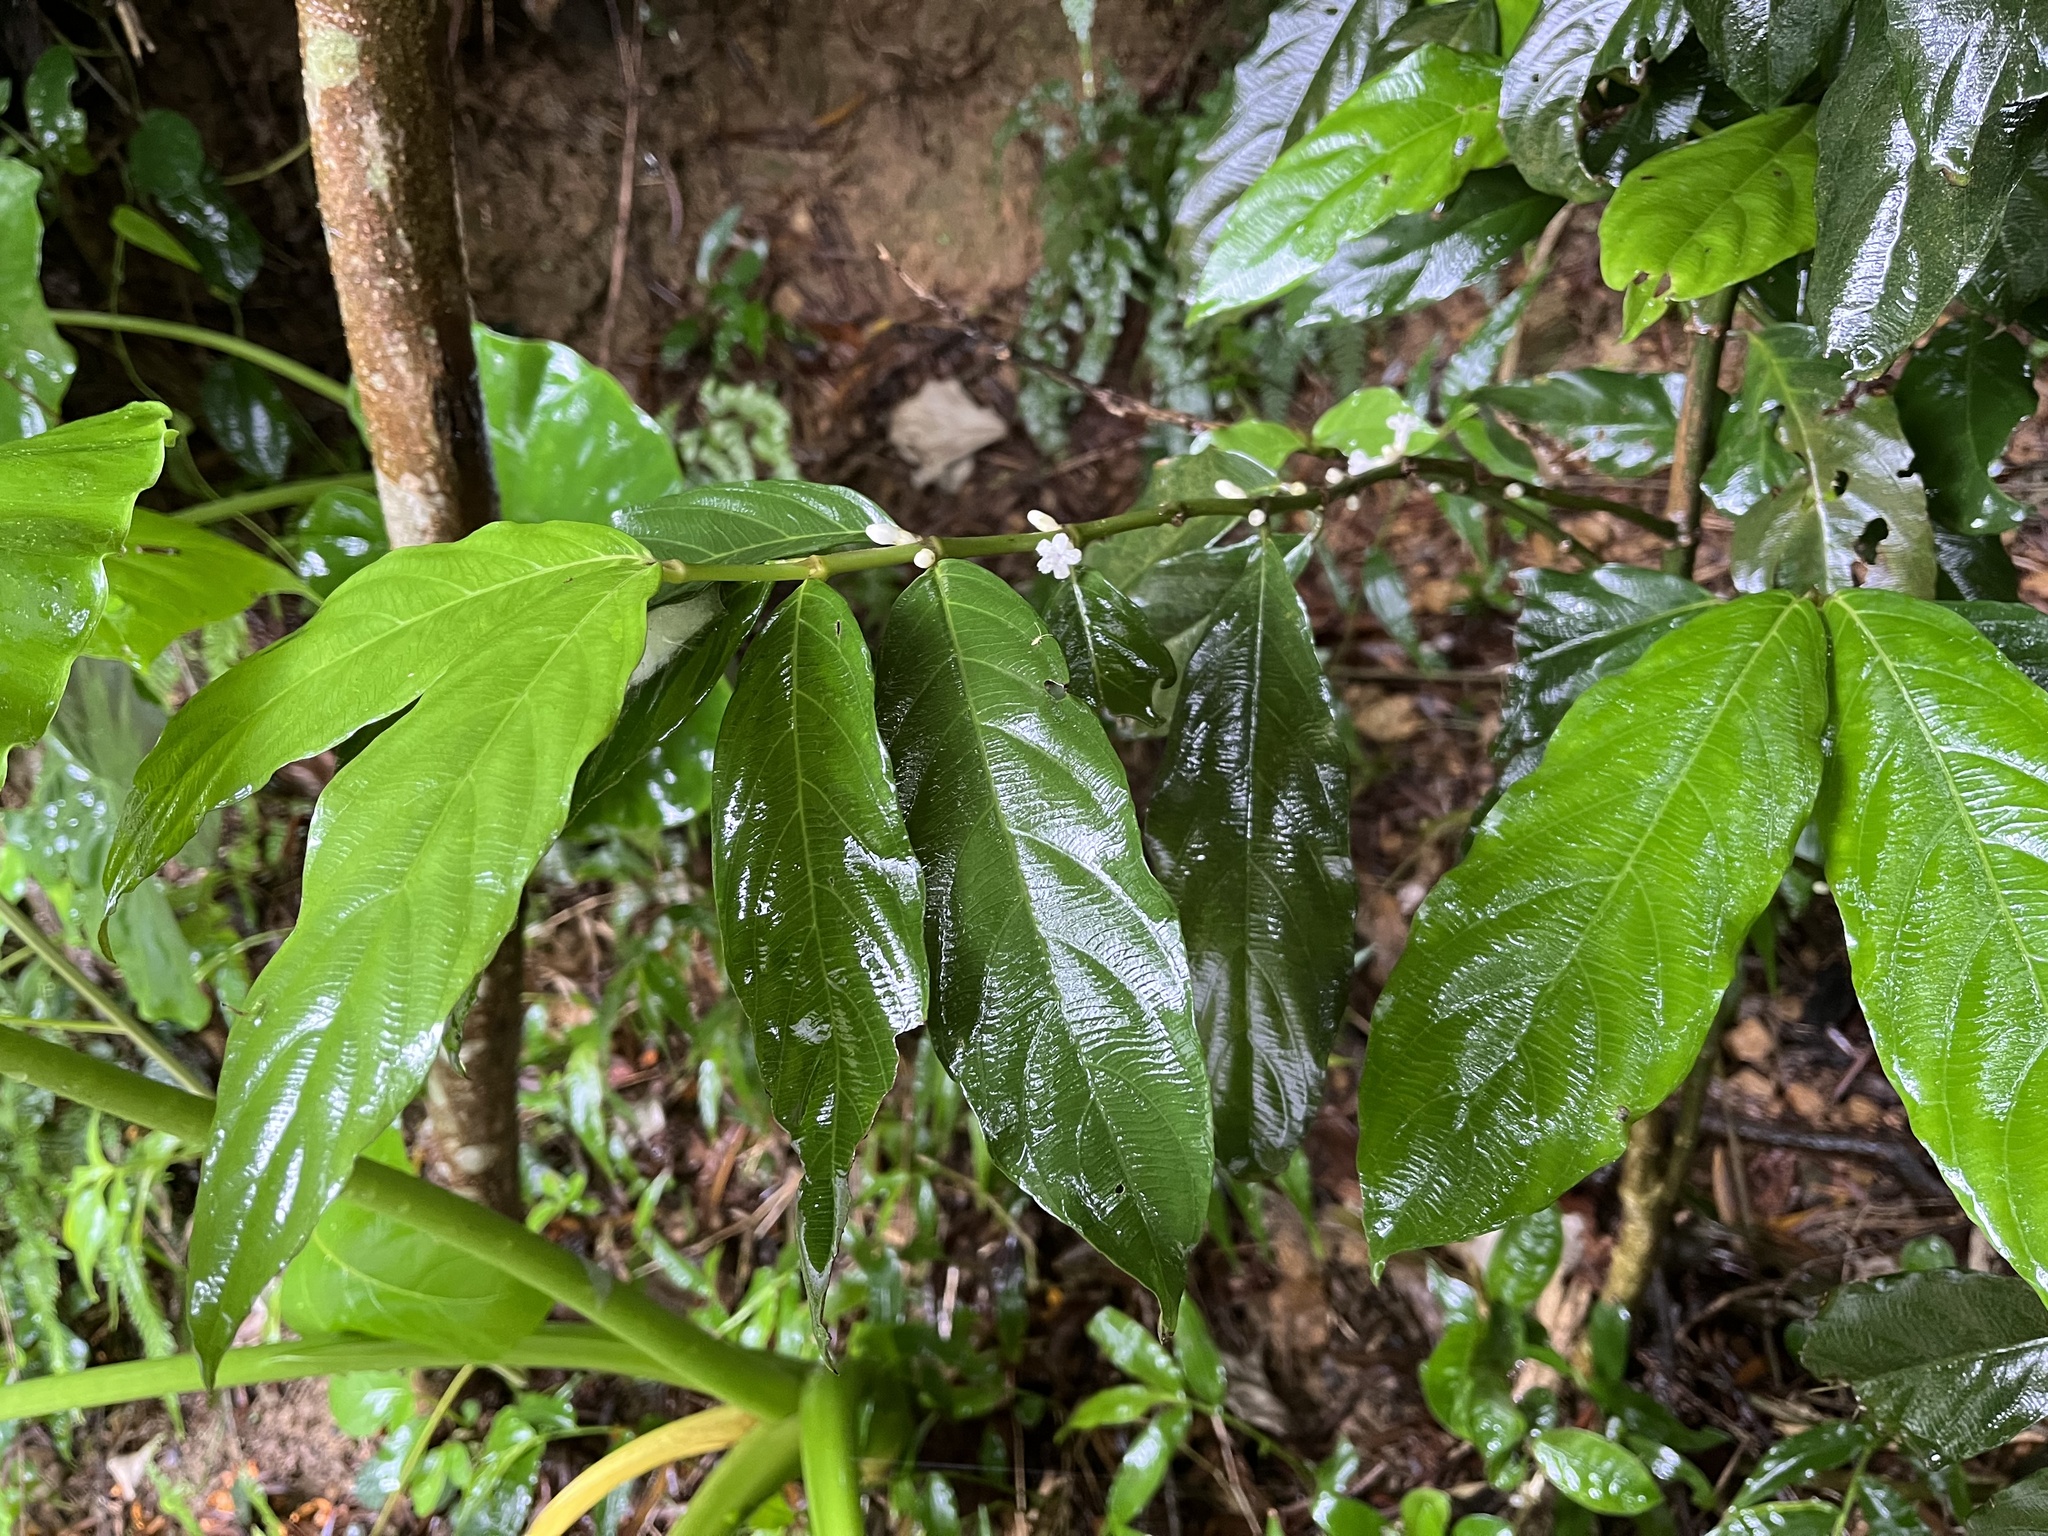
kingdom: Plantae
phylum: Tracheophyta
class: Magnoliopsida
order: Gentianales
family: Rubiaceae
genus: Lasianthus
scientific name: Lasianthus verticillatus
